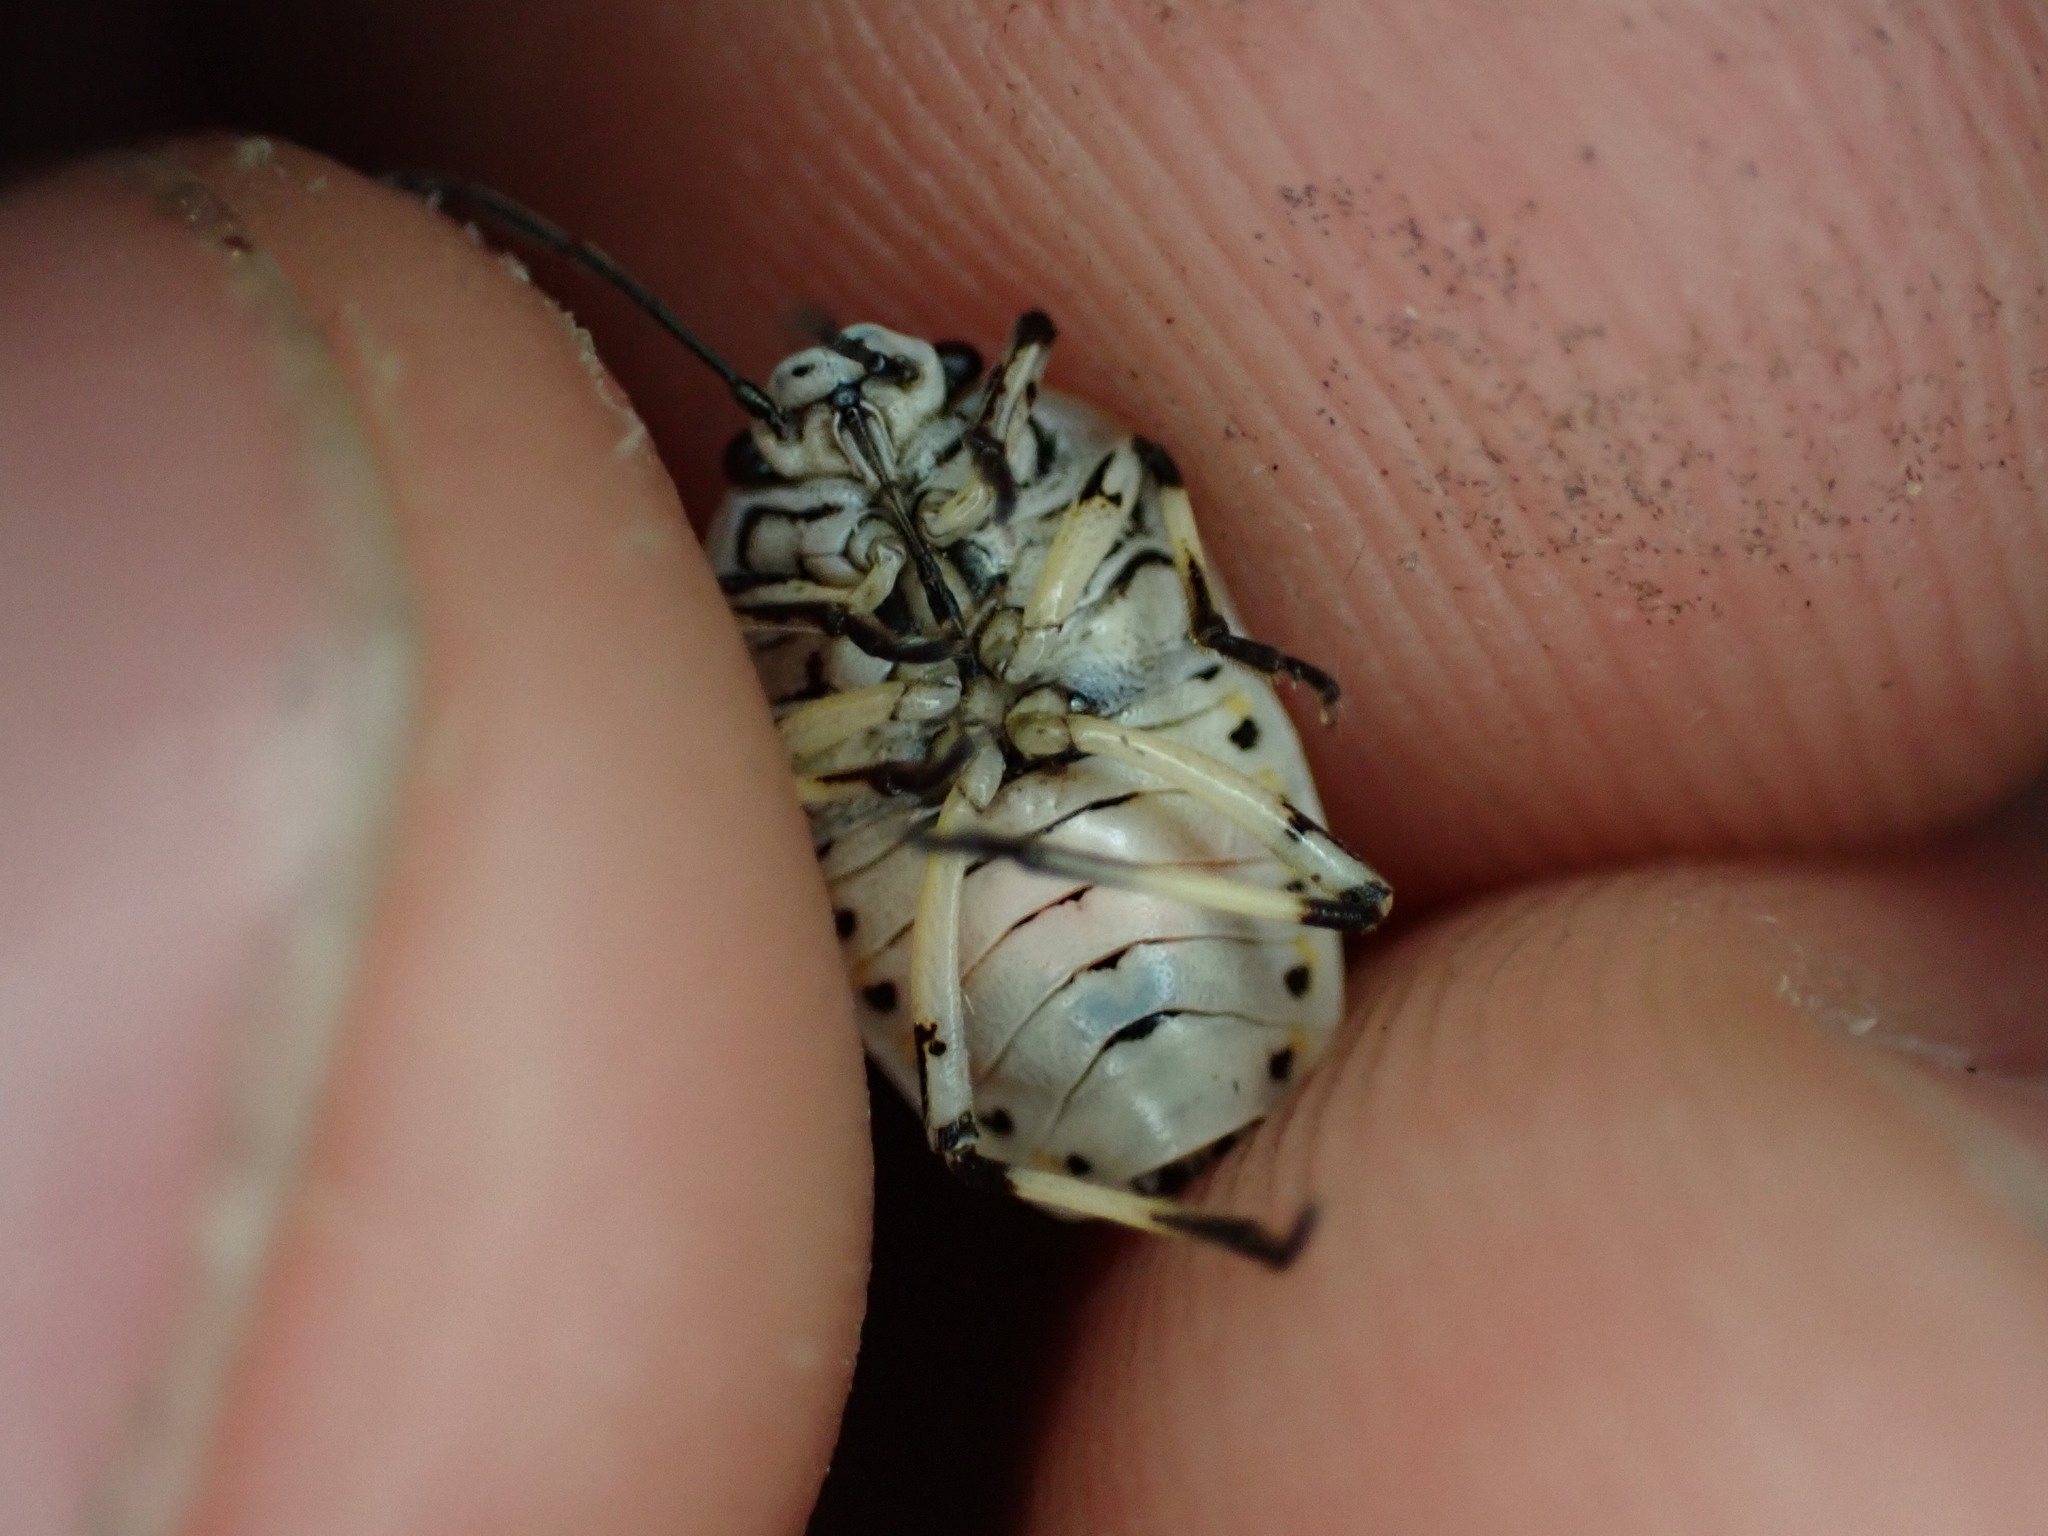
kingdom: Animalia
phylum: Arthropoda
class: Insecta
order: Hemiptera
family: Pentatomidae
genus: Eurydema
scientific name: Eurydema ornata
